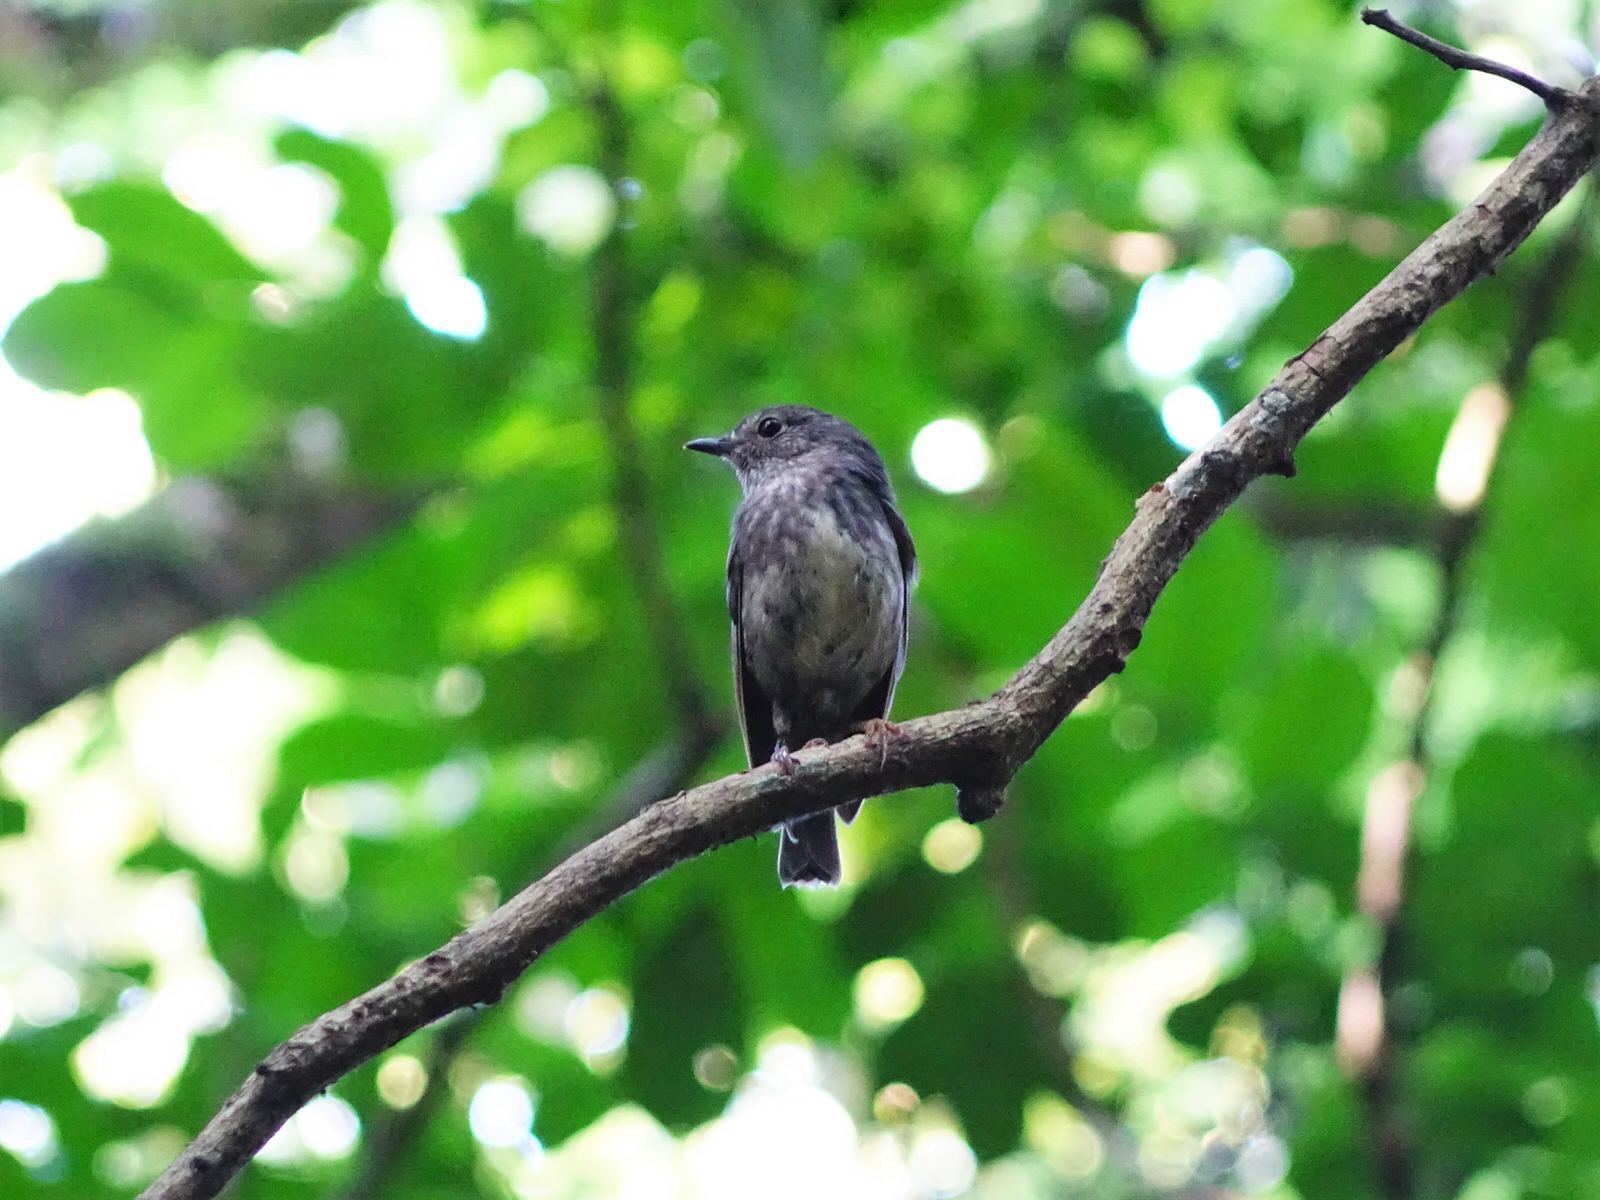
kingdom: Animalia
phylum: Chordata
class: Aves
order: Passeriformes
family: Petroicidae
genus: Petroica
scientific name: Petroica australis
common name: New zealand robin
